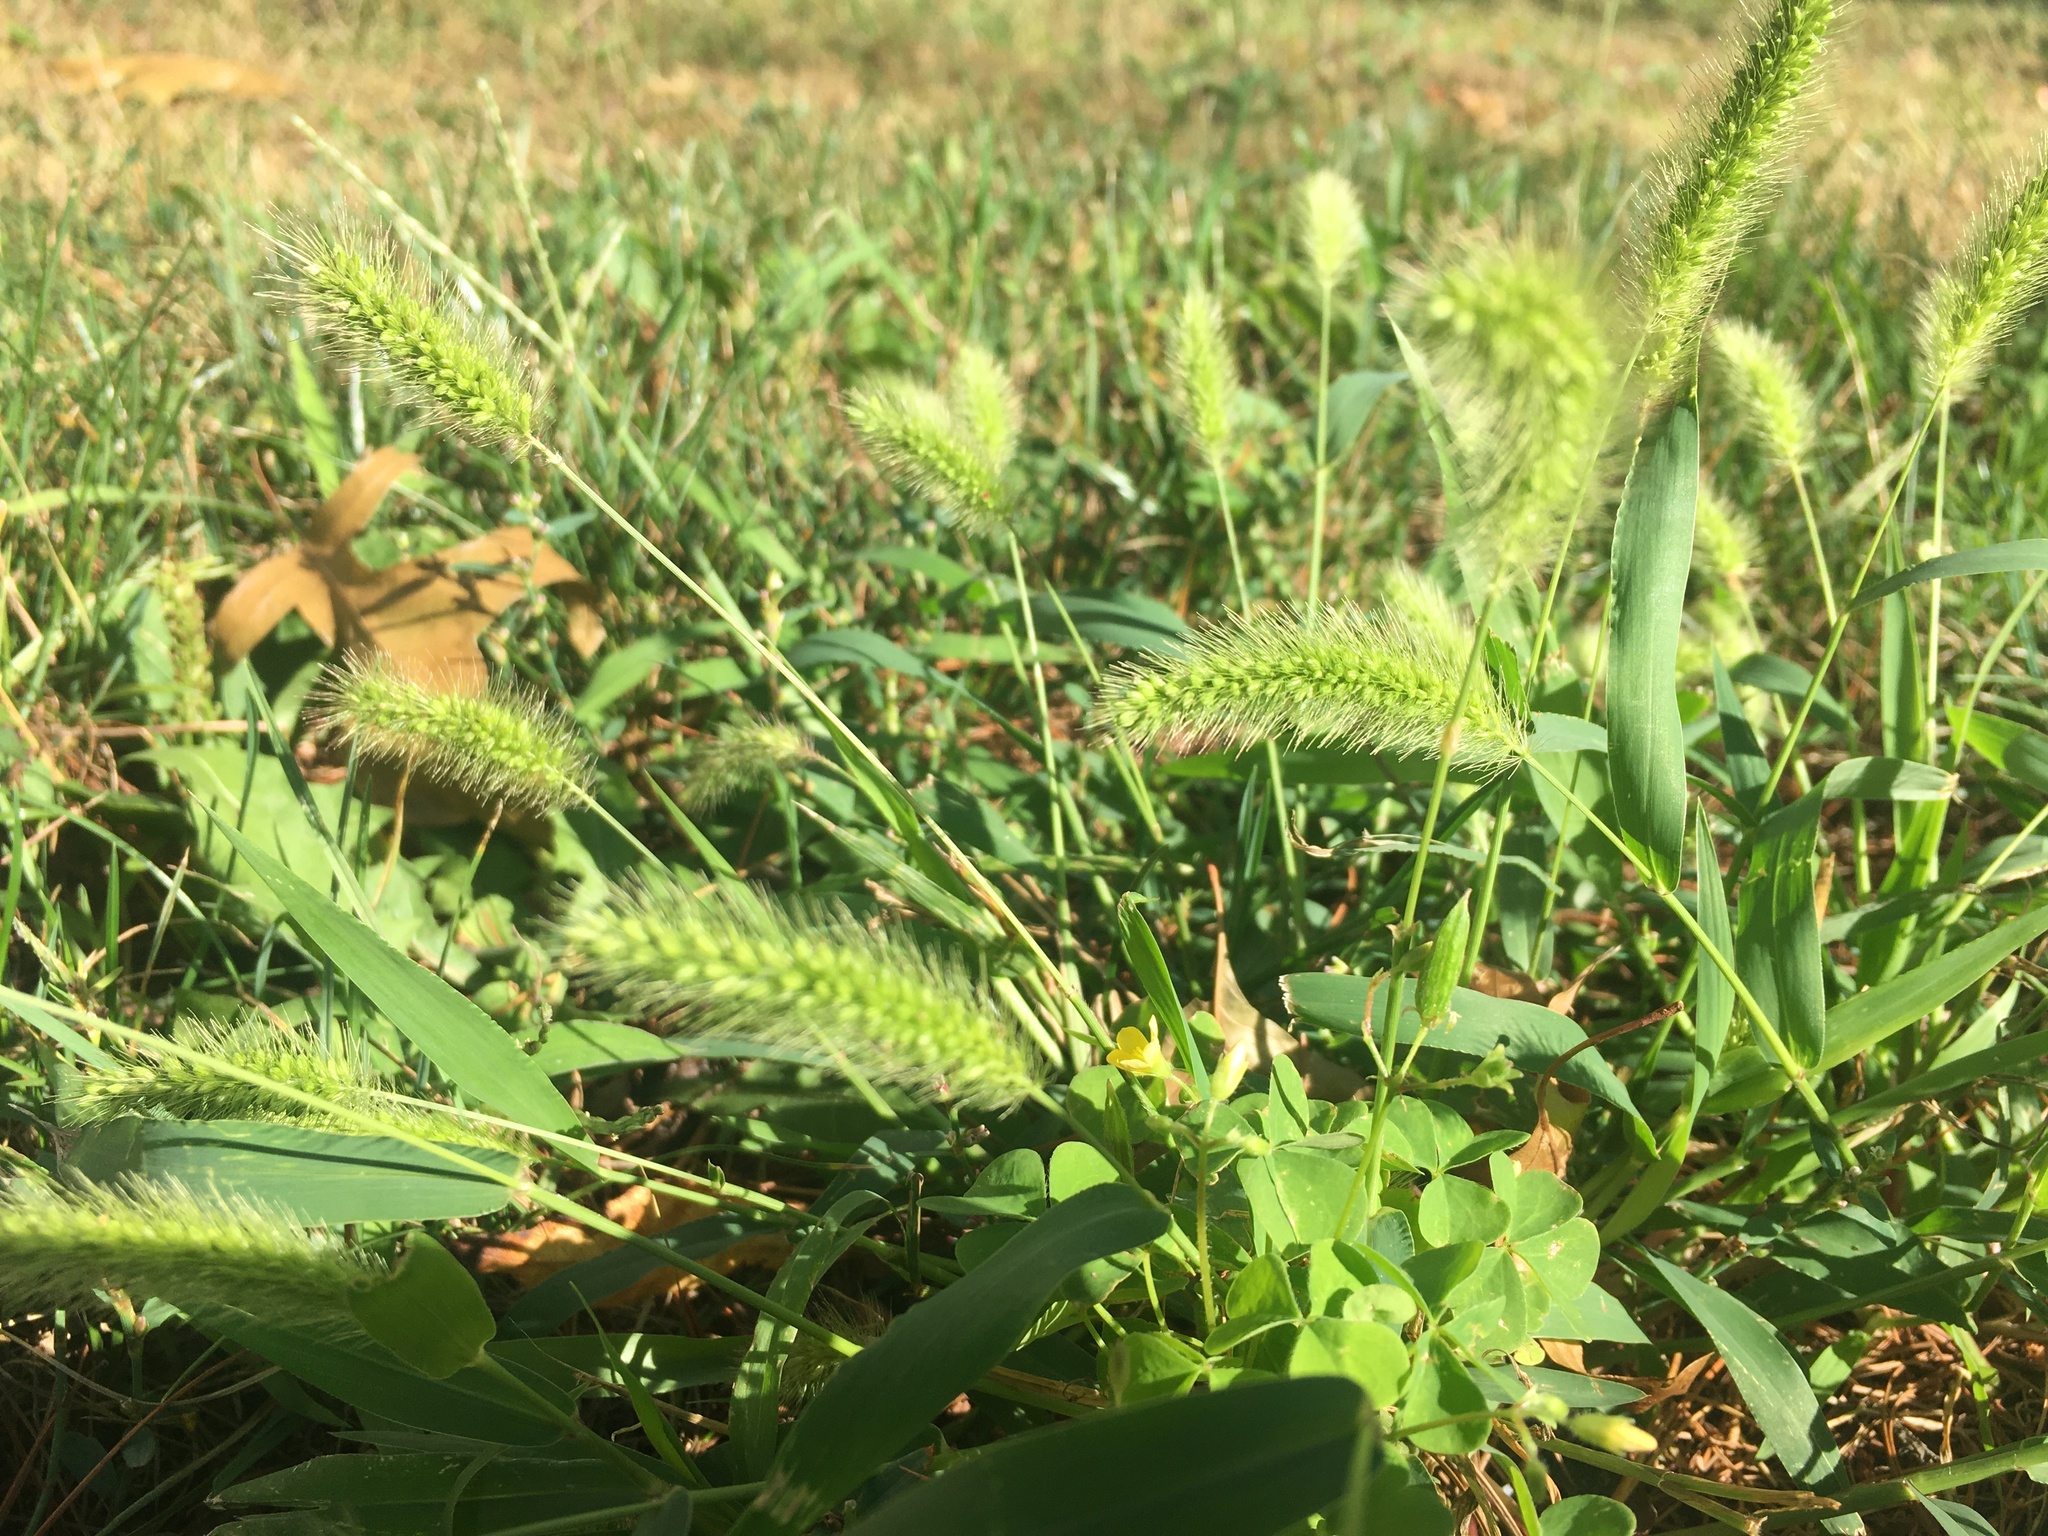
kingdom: Plantae
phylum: Tracheophyta
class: Liliopsida
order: Poales
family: Poaceae
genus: Setaria
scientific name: Setaria viridis
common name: Green bristlegrass
